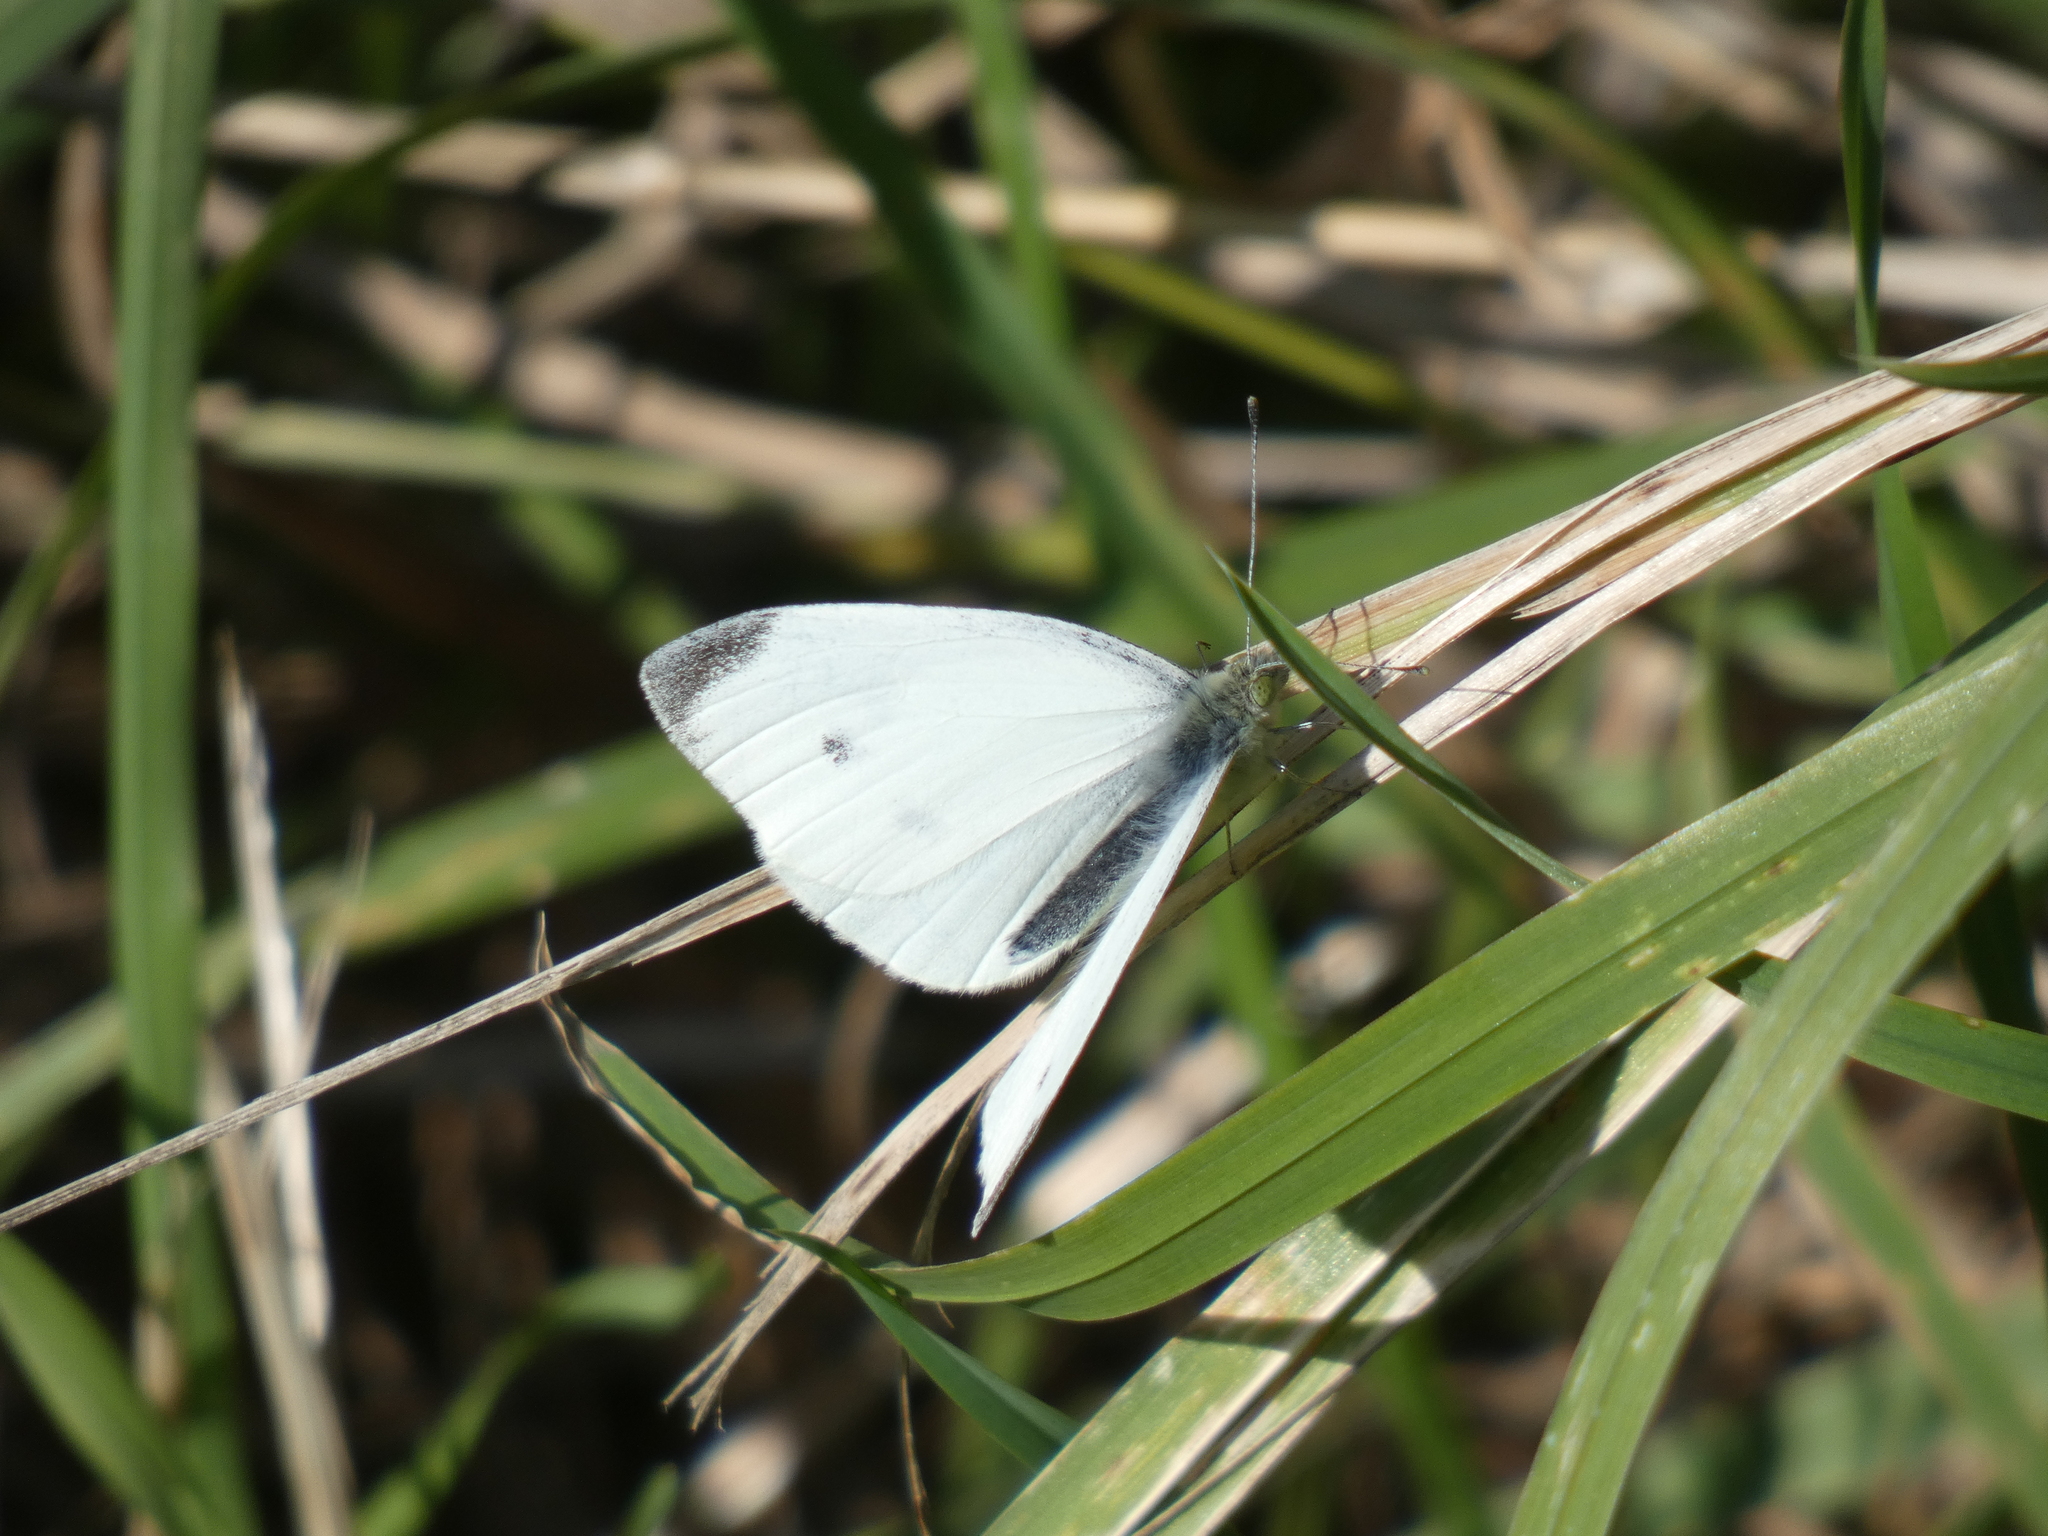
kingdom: Animalia
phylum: Arthropoda
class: Insecta
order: Lepidoptera
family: Pieridae
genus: Pieris
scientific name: Pieris rapae
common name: Small white
